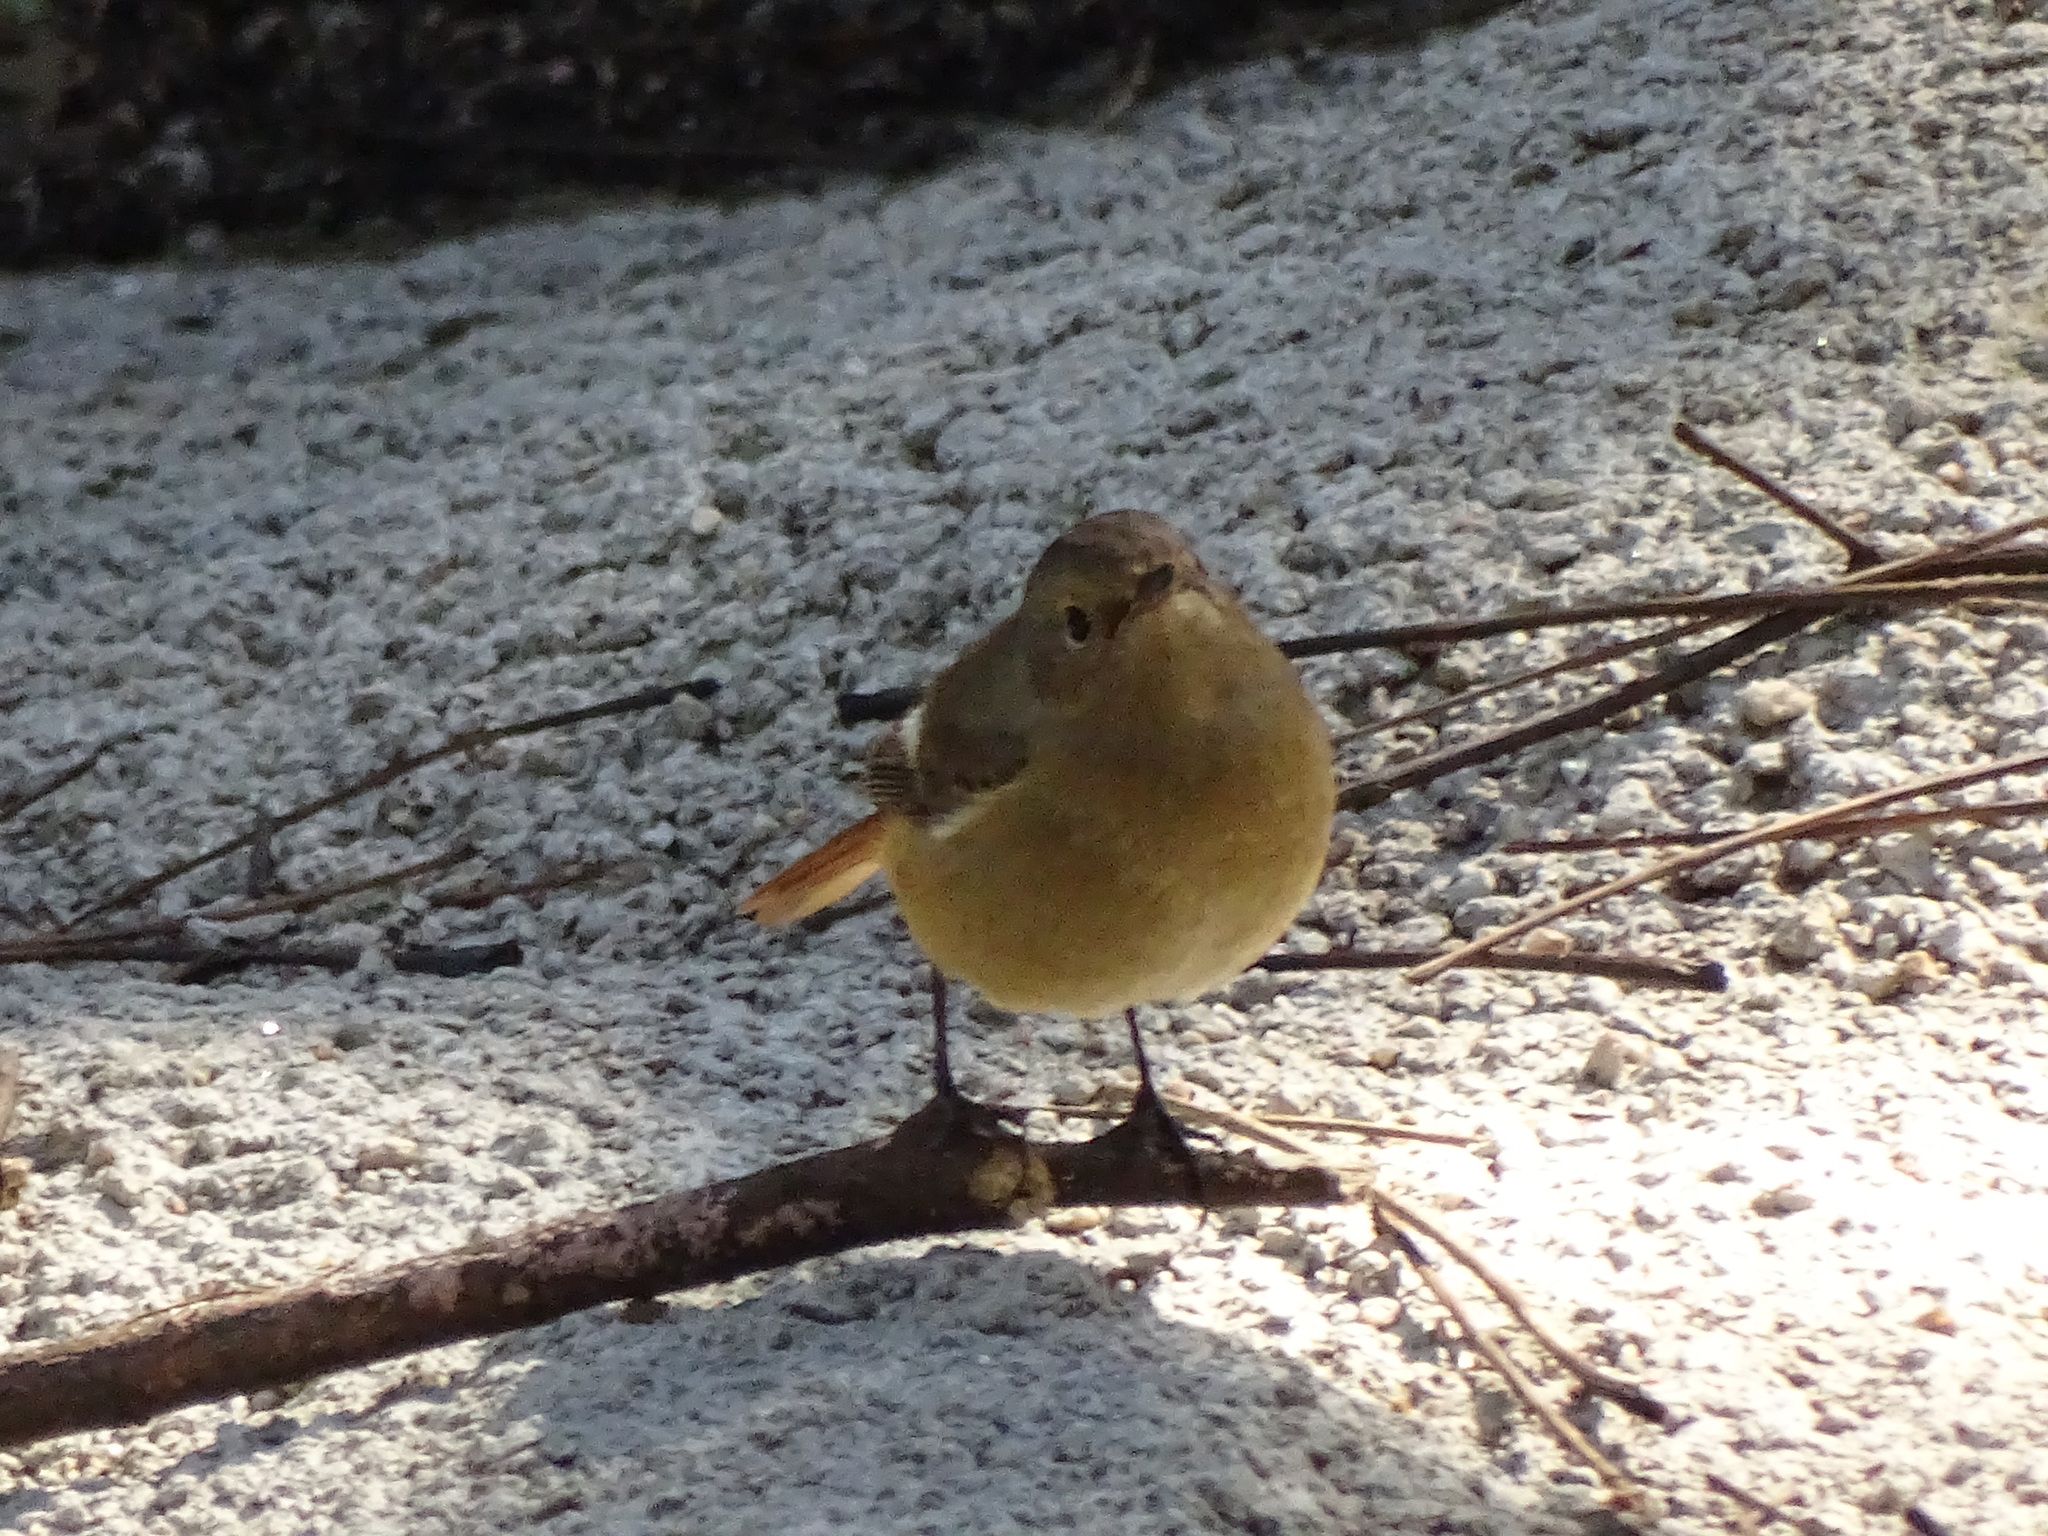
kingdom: Animalia
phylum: Chordata
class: Aves
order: Passeriformes
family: Muscicapidae
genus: Phoenicurus
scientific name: Phoenicurus auroreus
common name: Daurian redstart
